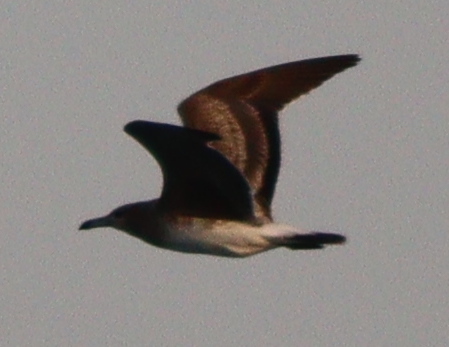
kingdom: Animalia
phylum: Chordata
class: Aves
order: Charadriiformes
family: Laridae
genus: Ichthyaetus
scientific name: Ichthyaetus hemprichii
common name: Sooty gull
